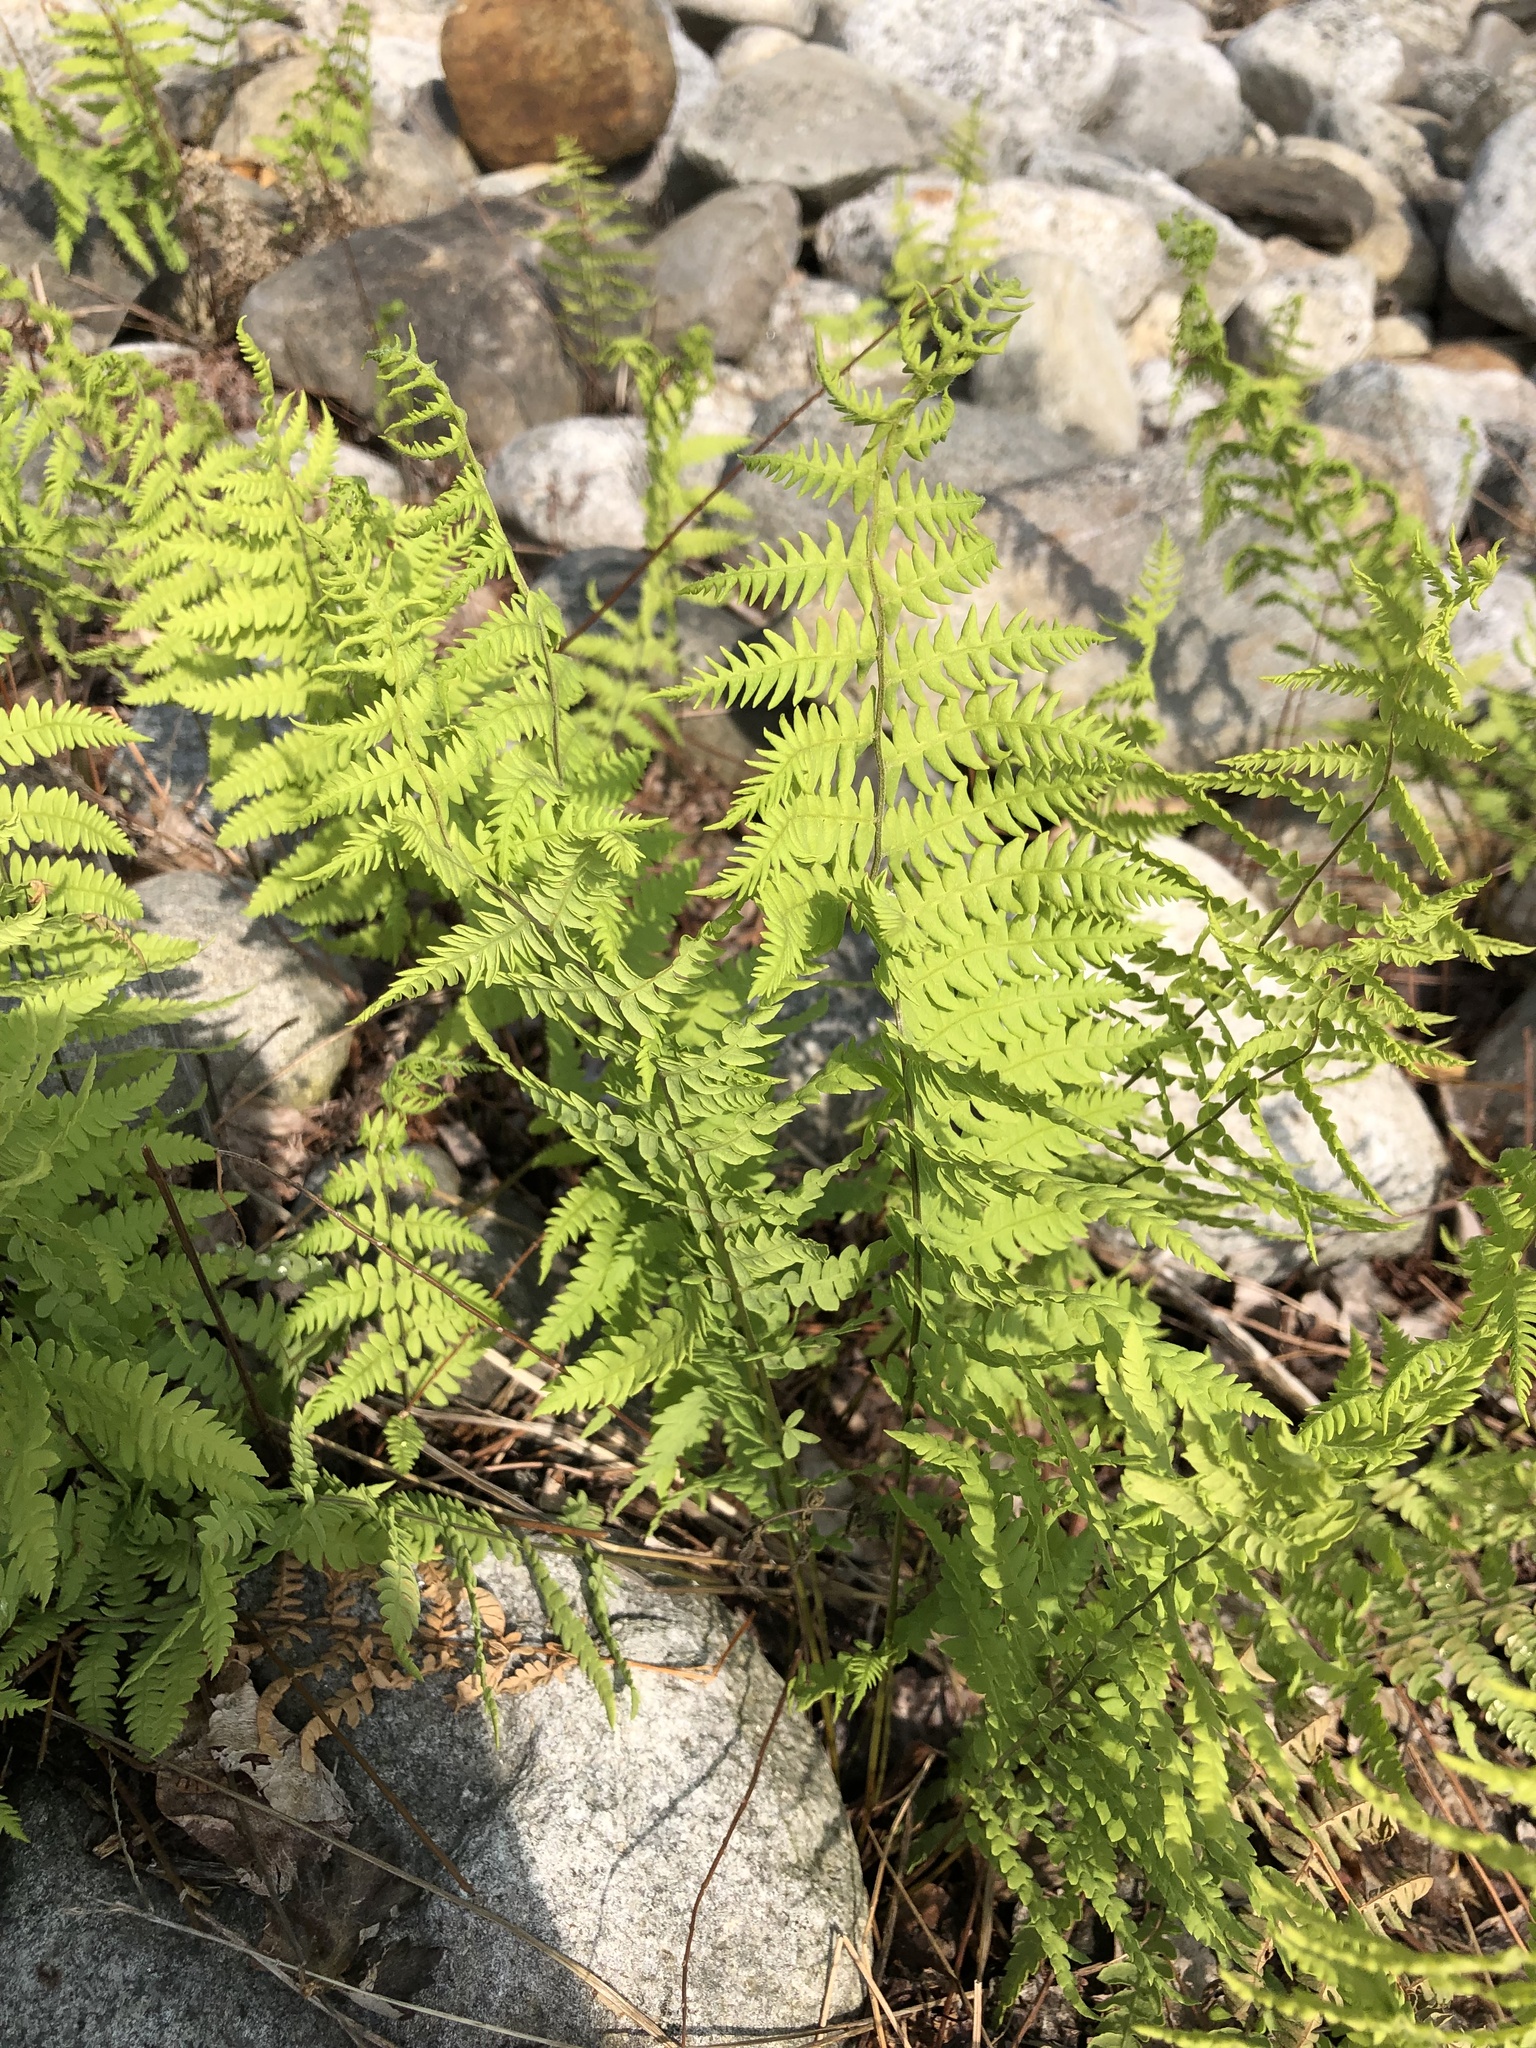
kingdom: Plantae
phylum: Tracheophyta
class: Polypodiopsida
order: Polypodiales
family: Thelypteridaceae
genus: Thelypteris
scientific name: Thelypteris palustris
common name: Marsh fern
